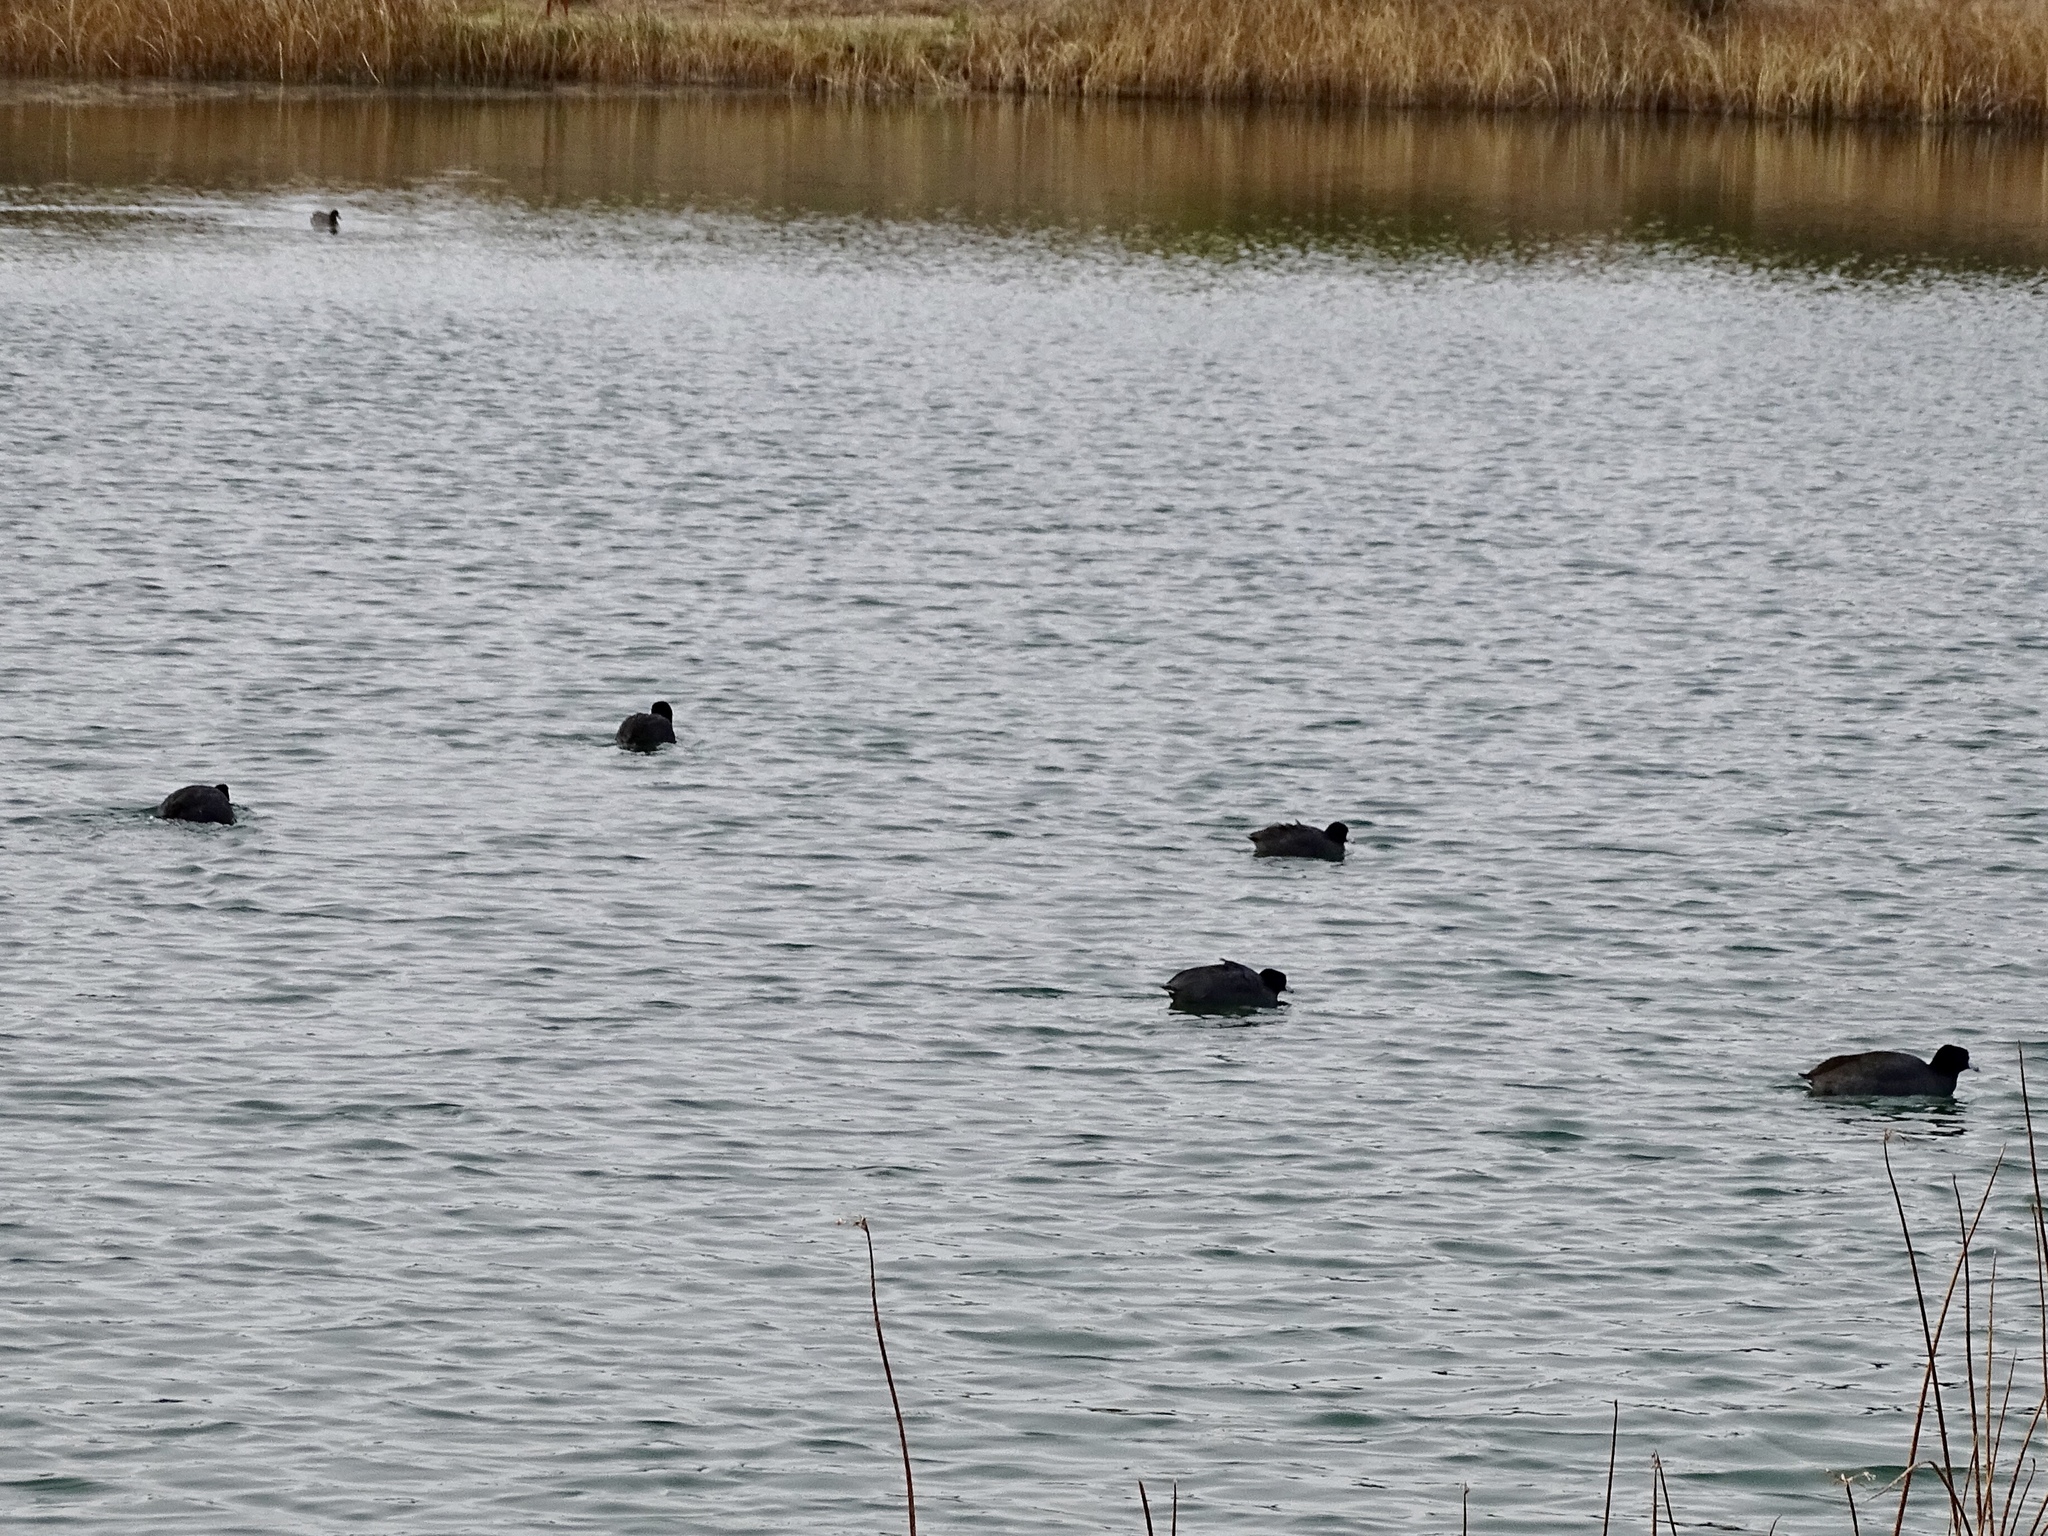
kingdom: Animalia
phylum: Chordata
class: Aves
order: Gruiformes
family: Rallidae
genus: Fulica
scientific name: Fulica americana
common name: American coot
